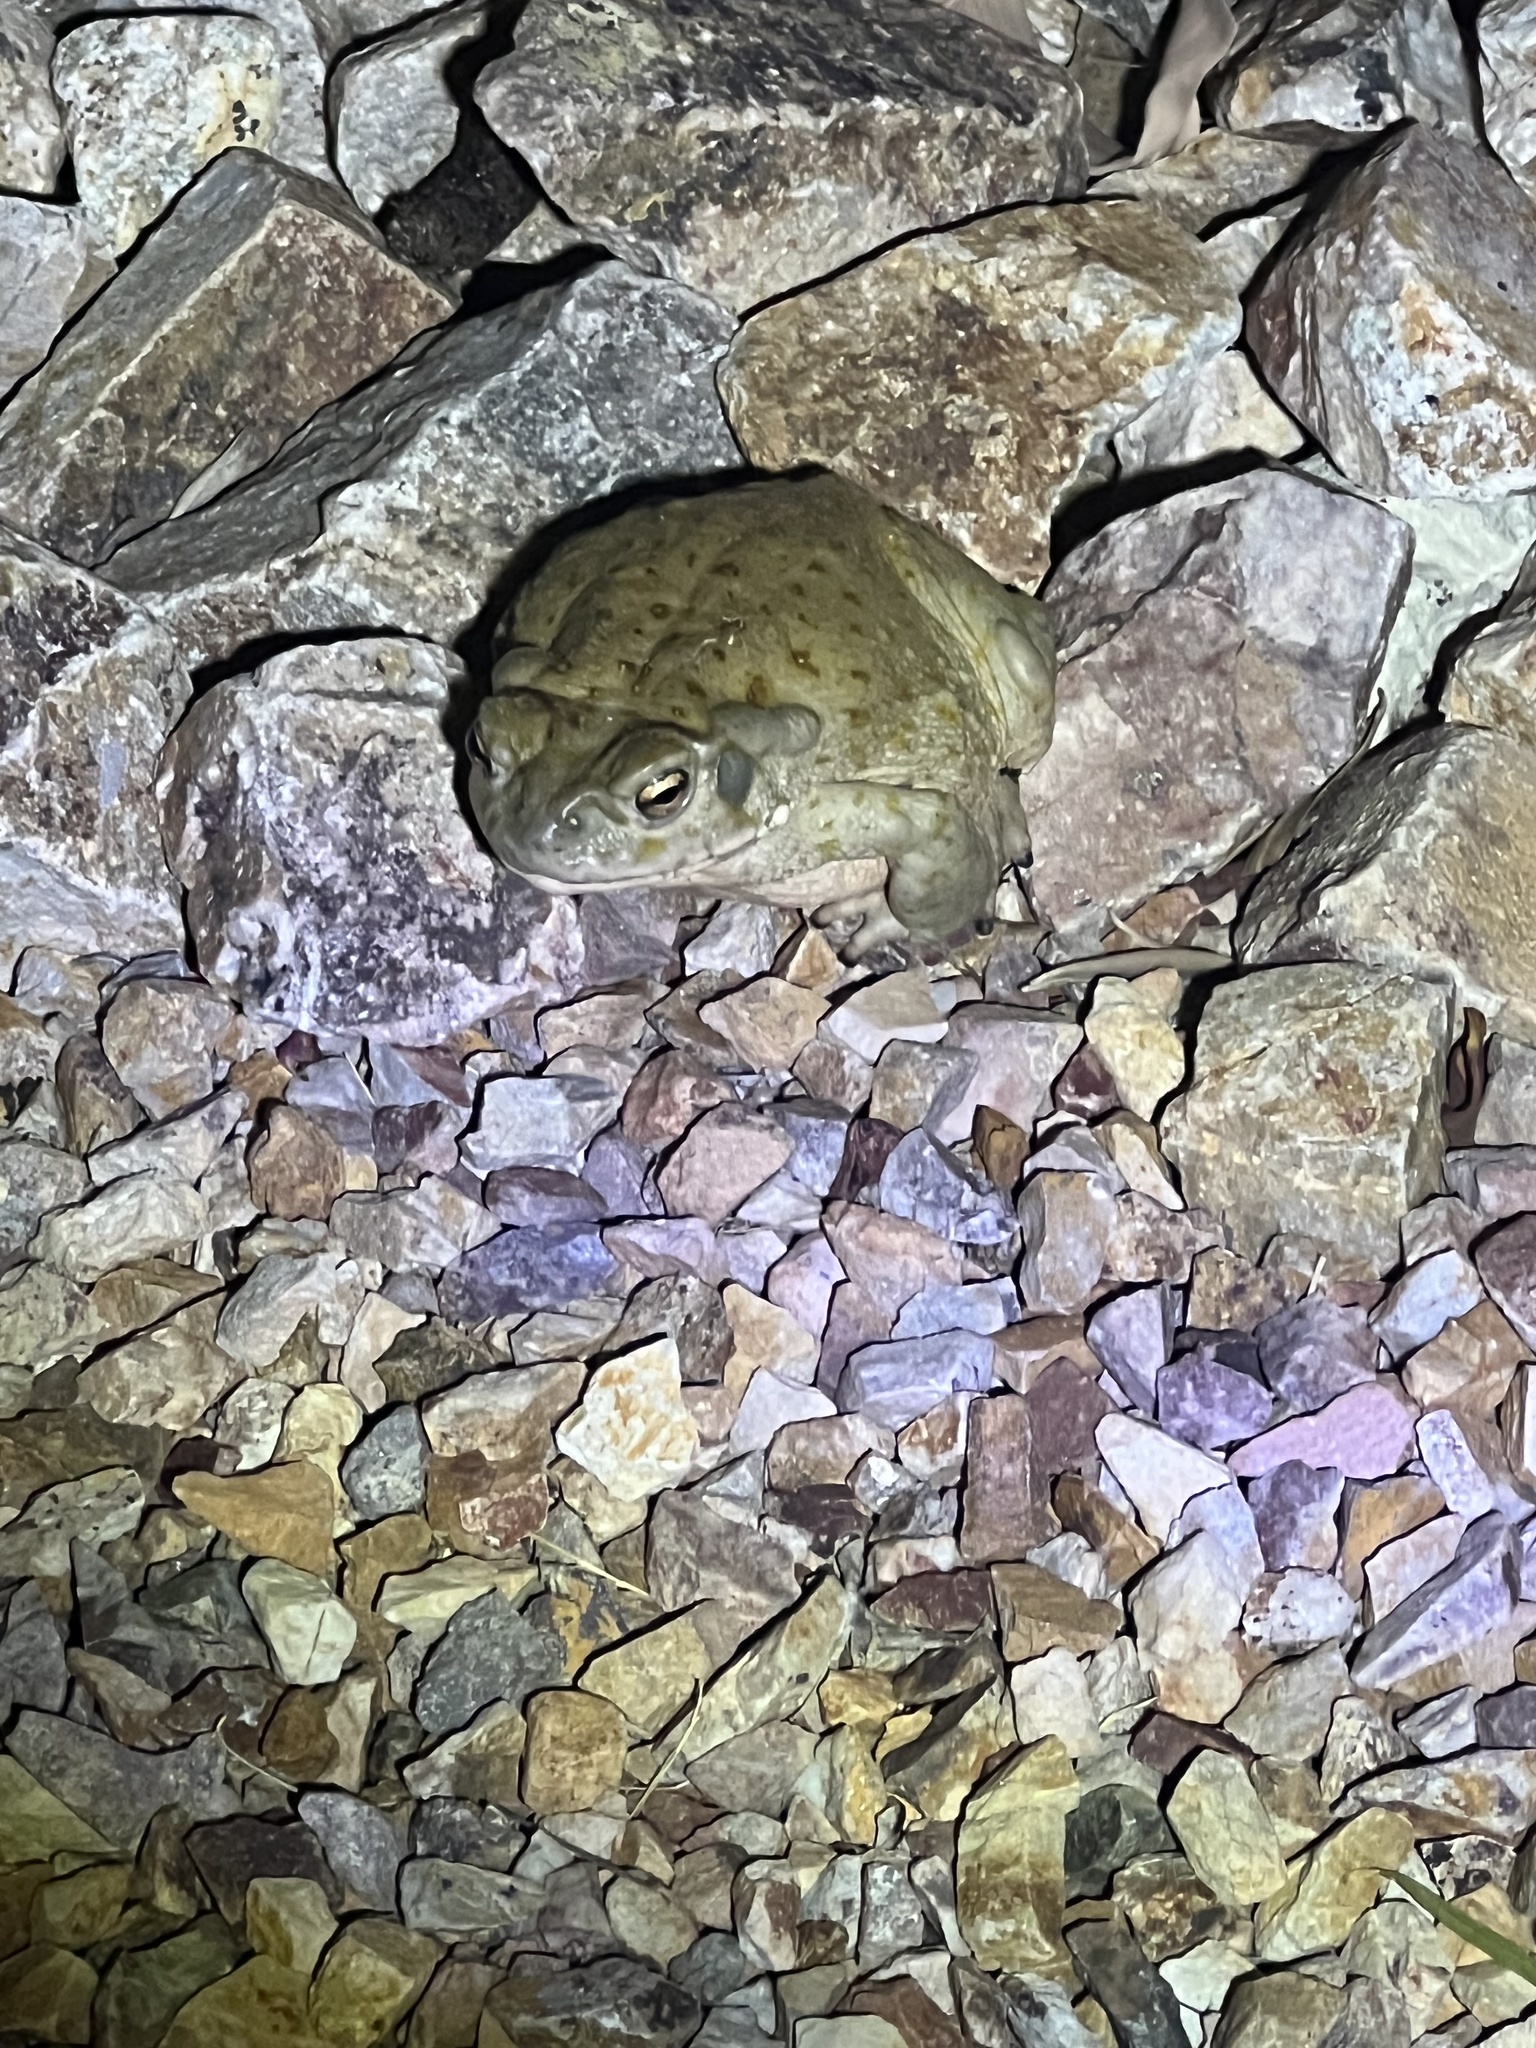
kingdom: Animalia
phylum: Chordata
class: Amphibia
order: Anura
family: Bufonidae
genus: Incilius
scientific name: Incilius alvarius
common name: Sonoran desert toad
